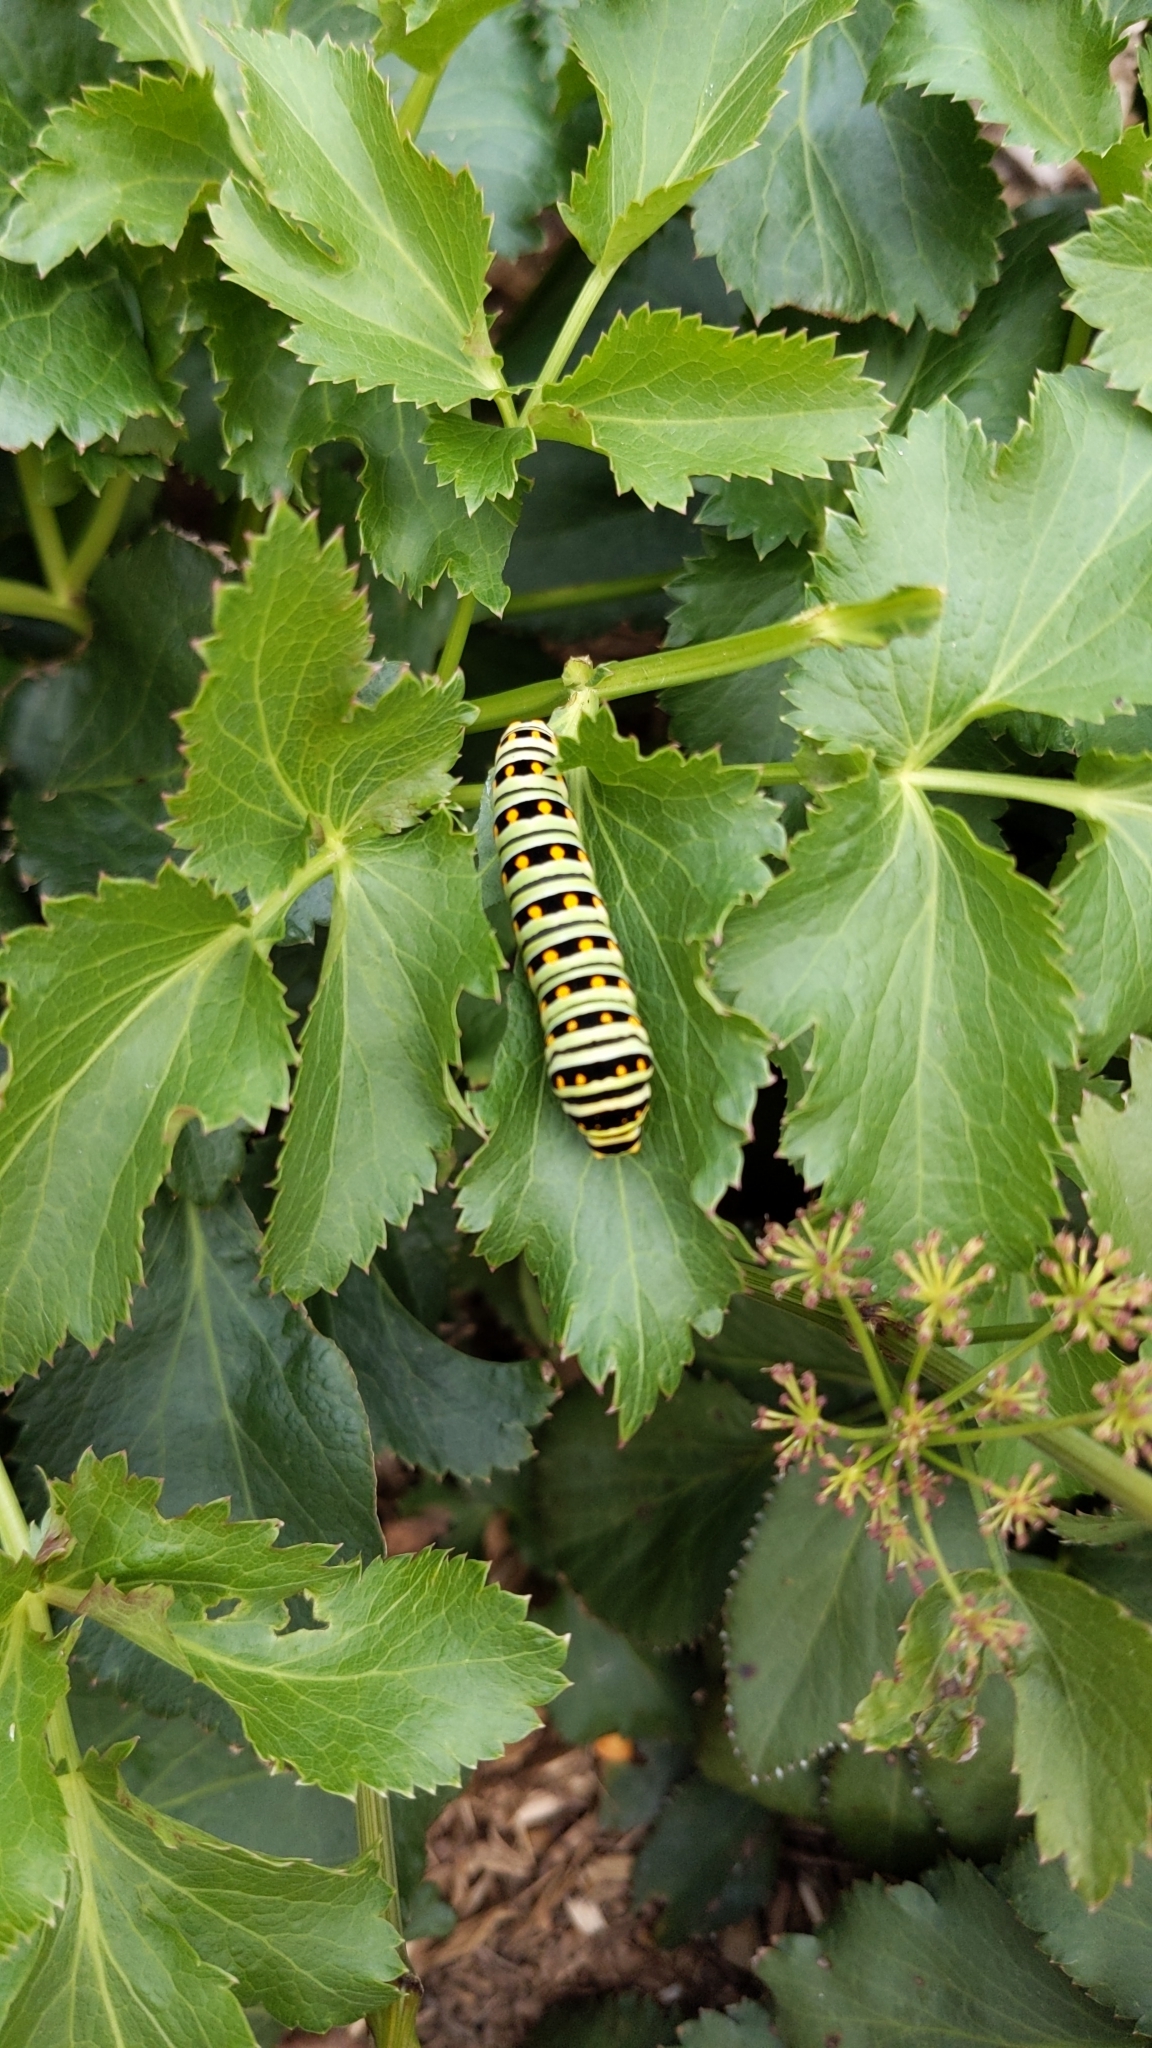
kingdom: Animalia
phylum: Arthropoda
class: Insecta
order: Lepidoptera
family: Papilionidae
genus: Papilio
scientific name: Papilio polyxenes
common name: Black swallowtail
